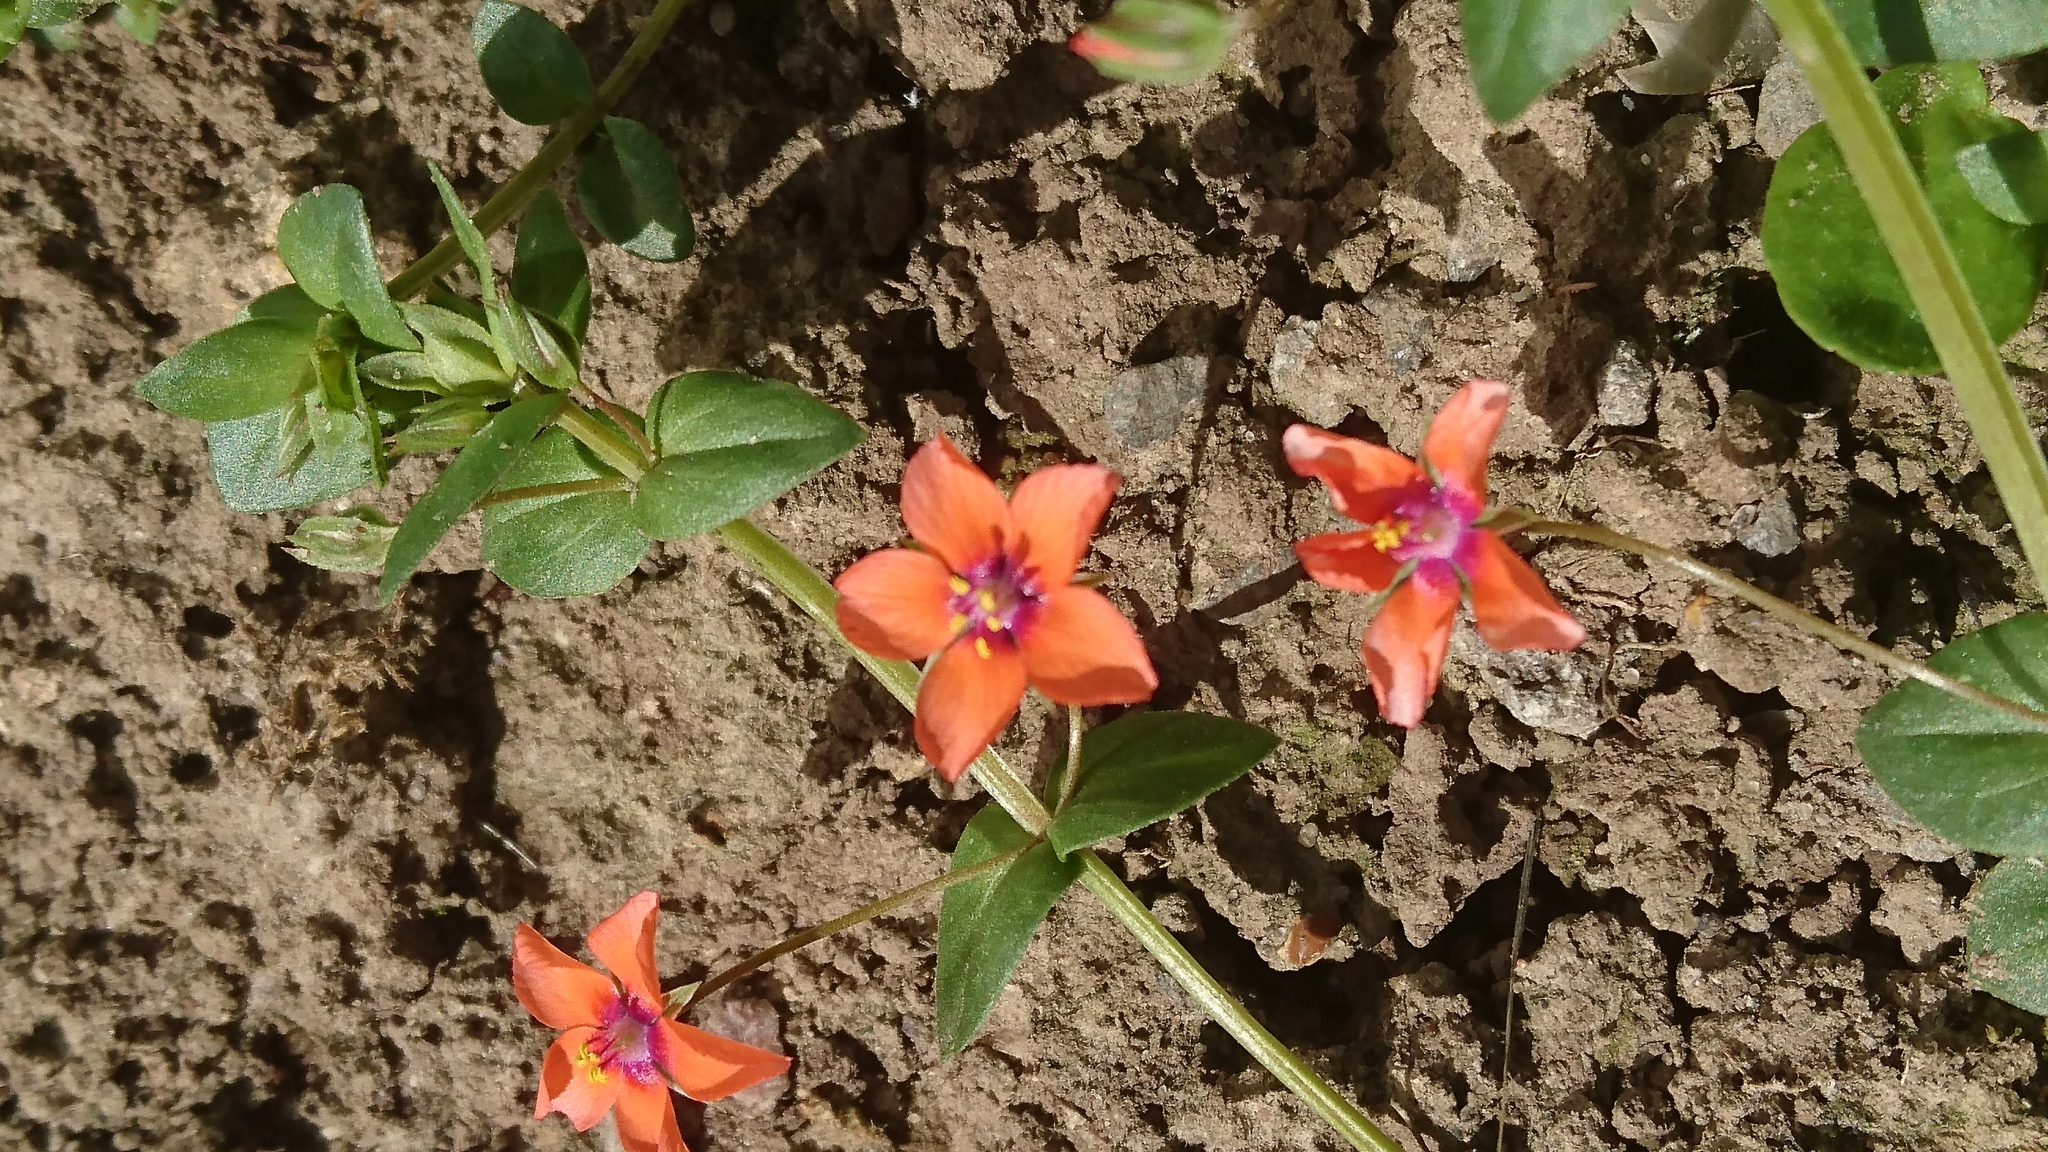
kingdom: Plantae
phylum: Tracheophyta
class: Magnoliopsida
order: Ericales
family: Primulaceae
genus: Lysimachia
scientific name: Lysimachia arvensis
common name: Scarlet pimpernel
